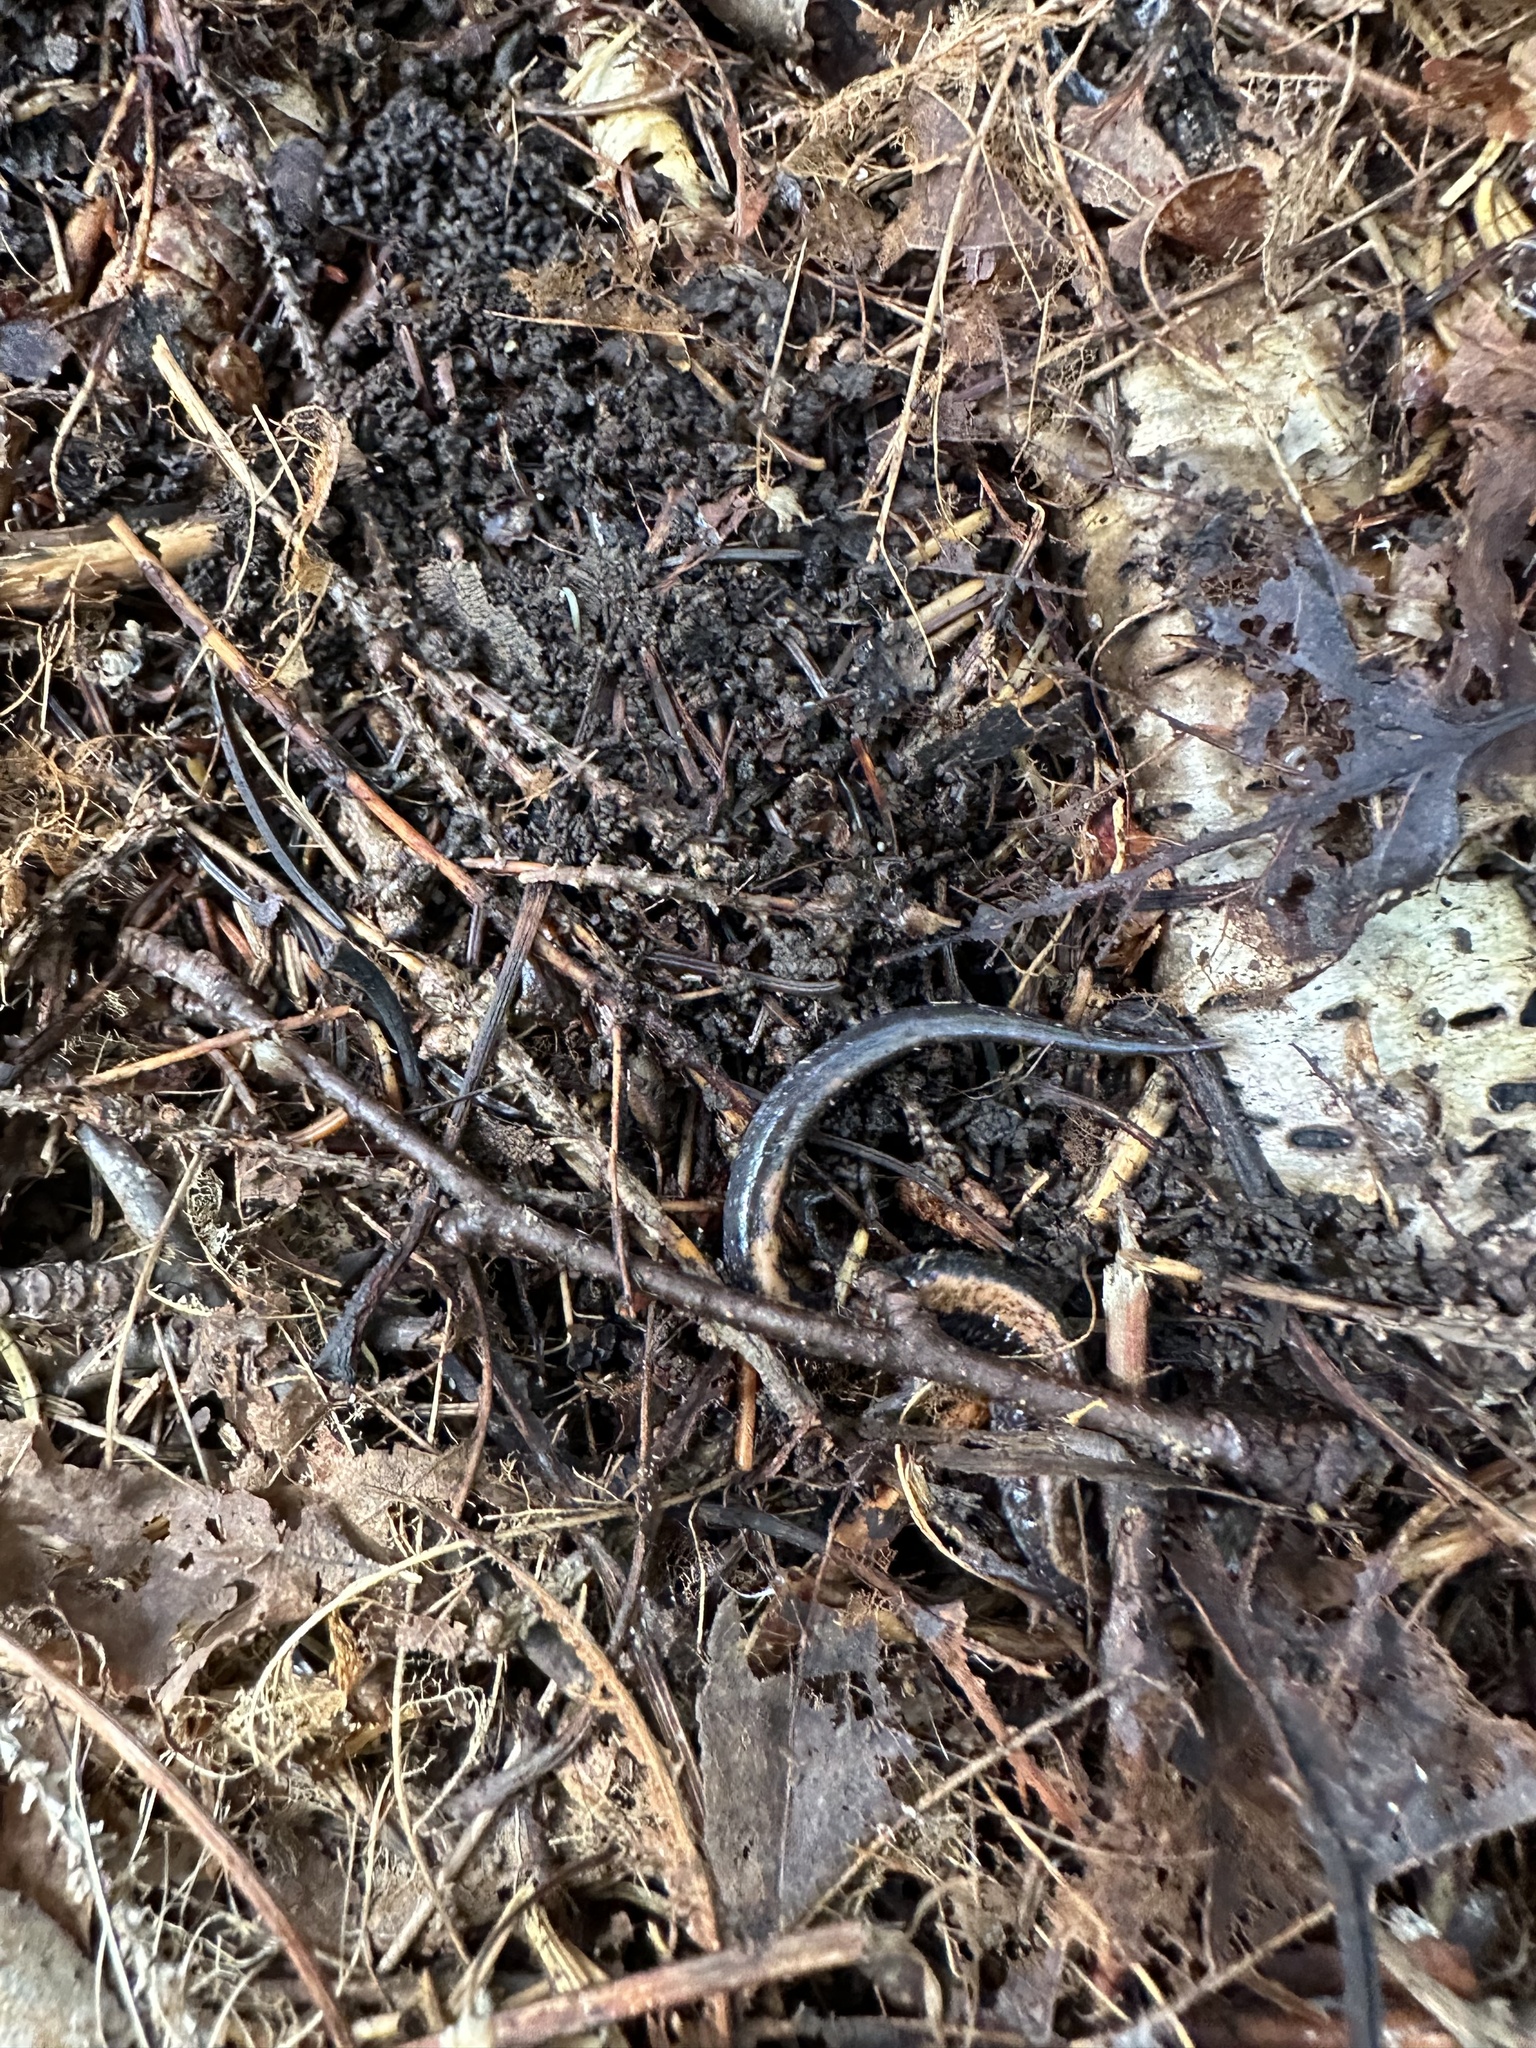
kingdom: Animalia
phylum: Chordata
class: Amphibia
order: Caudata
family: Plethodontidae
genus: Plethodon
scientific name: Plethodon cinereus
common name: Redback salamander
